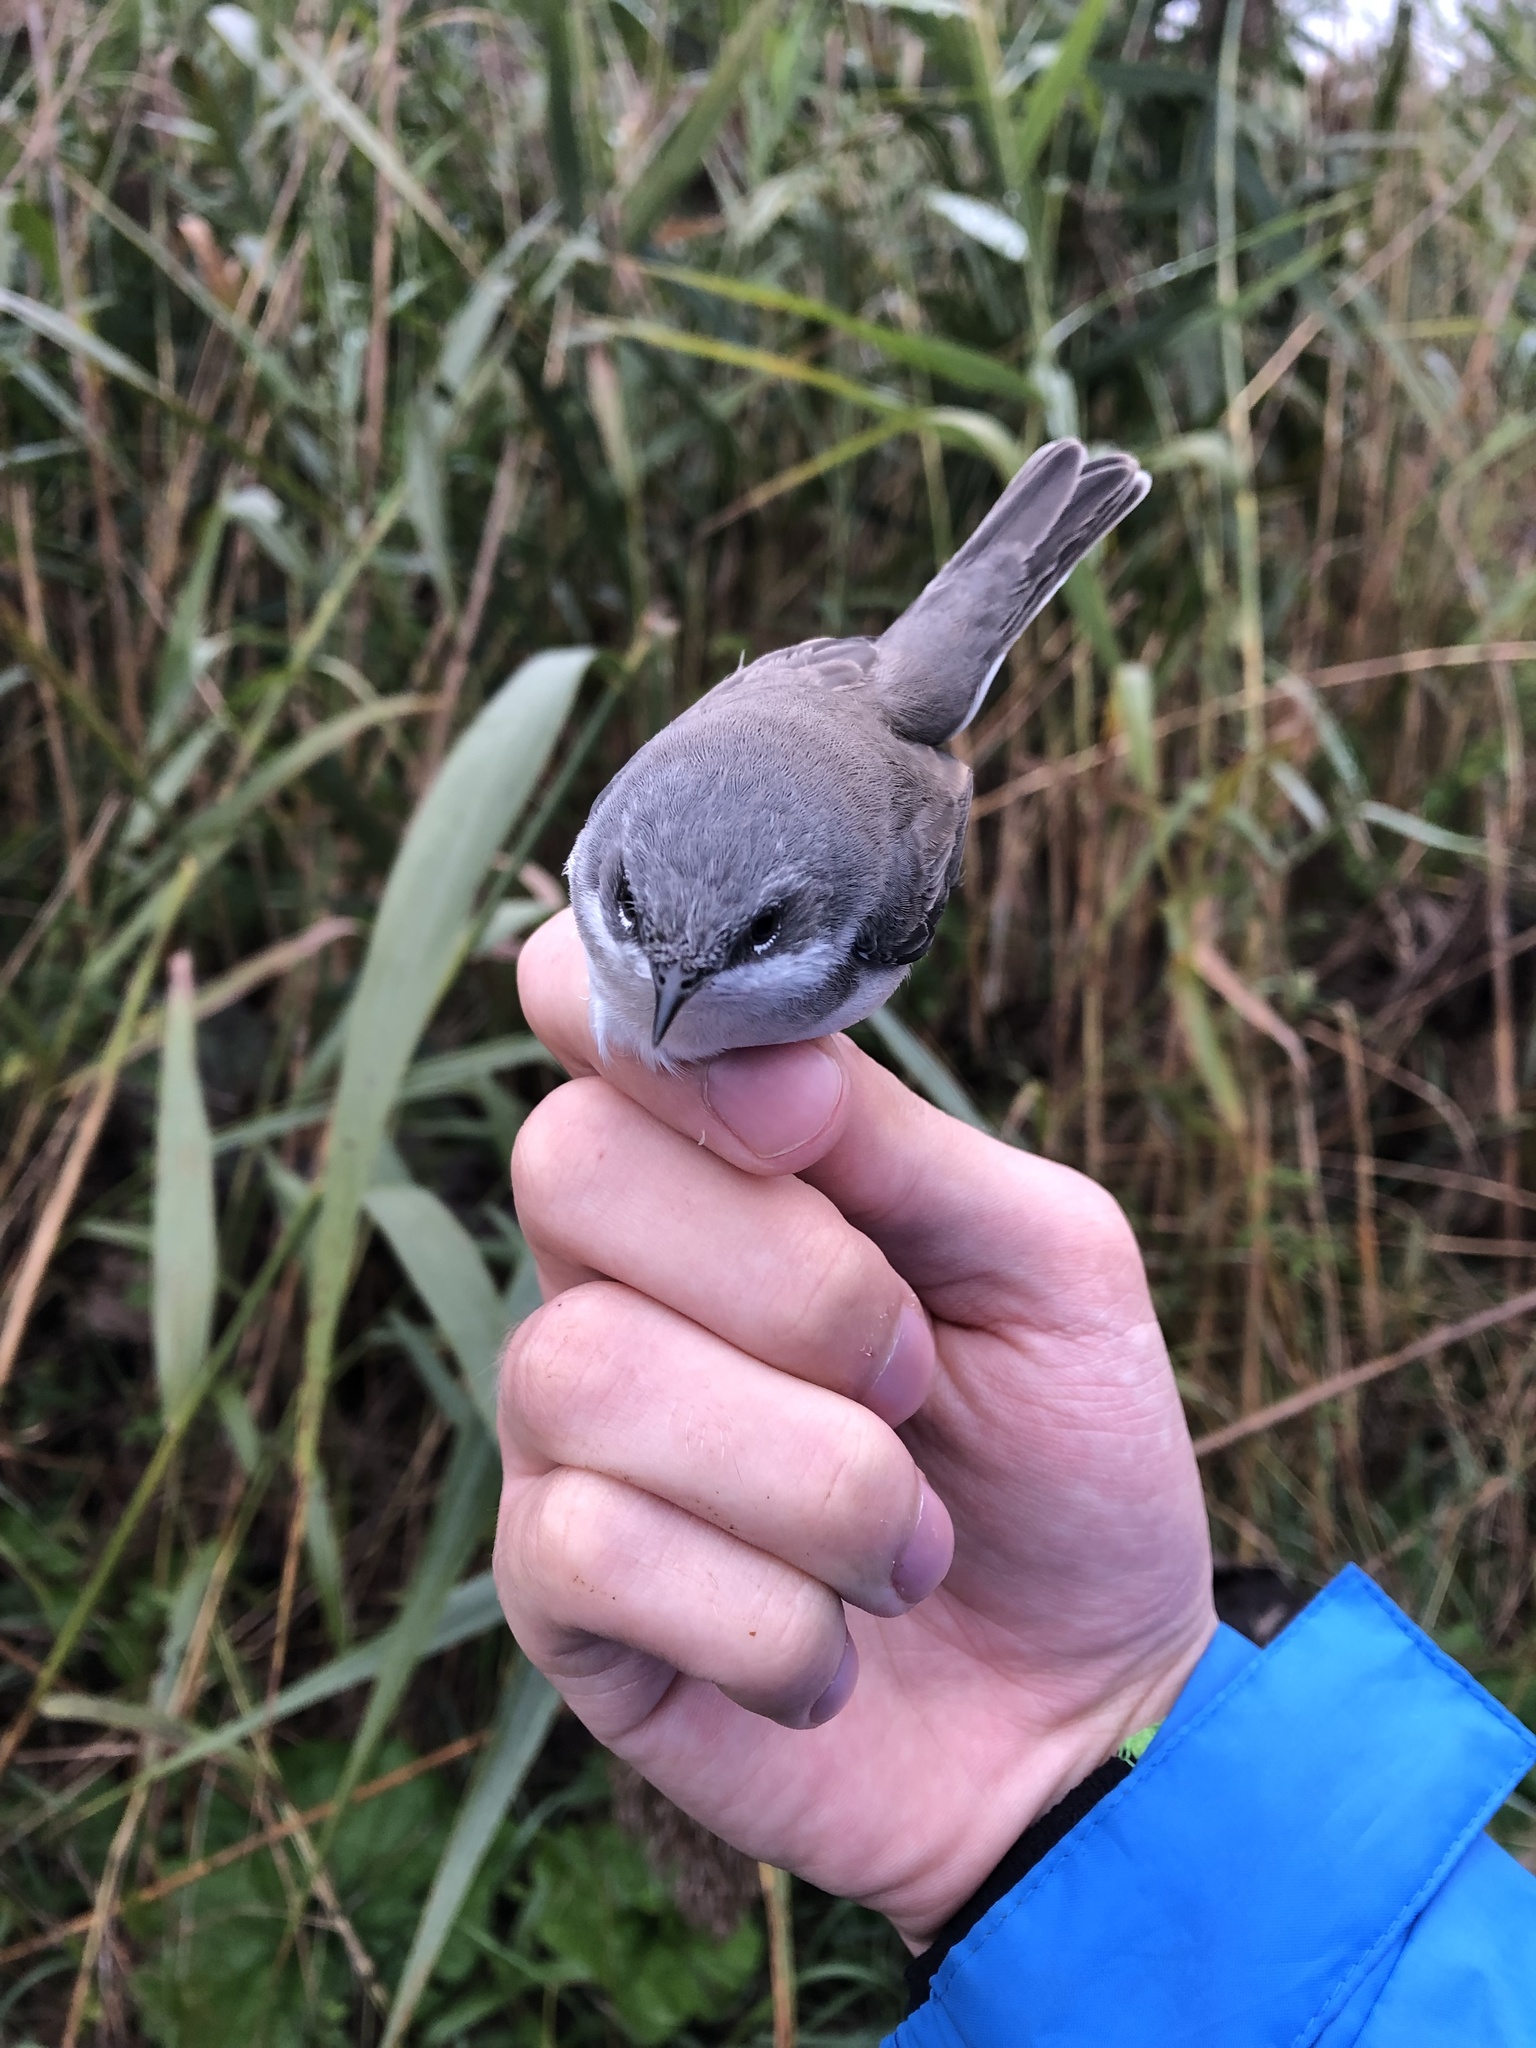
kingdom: Animalia
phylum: Chordata
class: Aves
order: Passeriformes
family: Sylviidae
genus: Sylvia
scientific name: Sylvia curruca
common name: Lesser whitethroat
